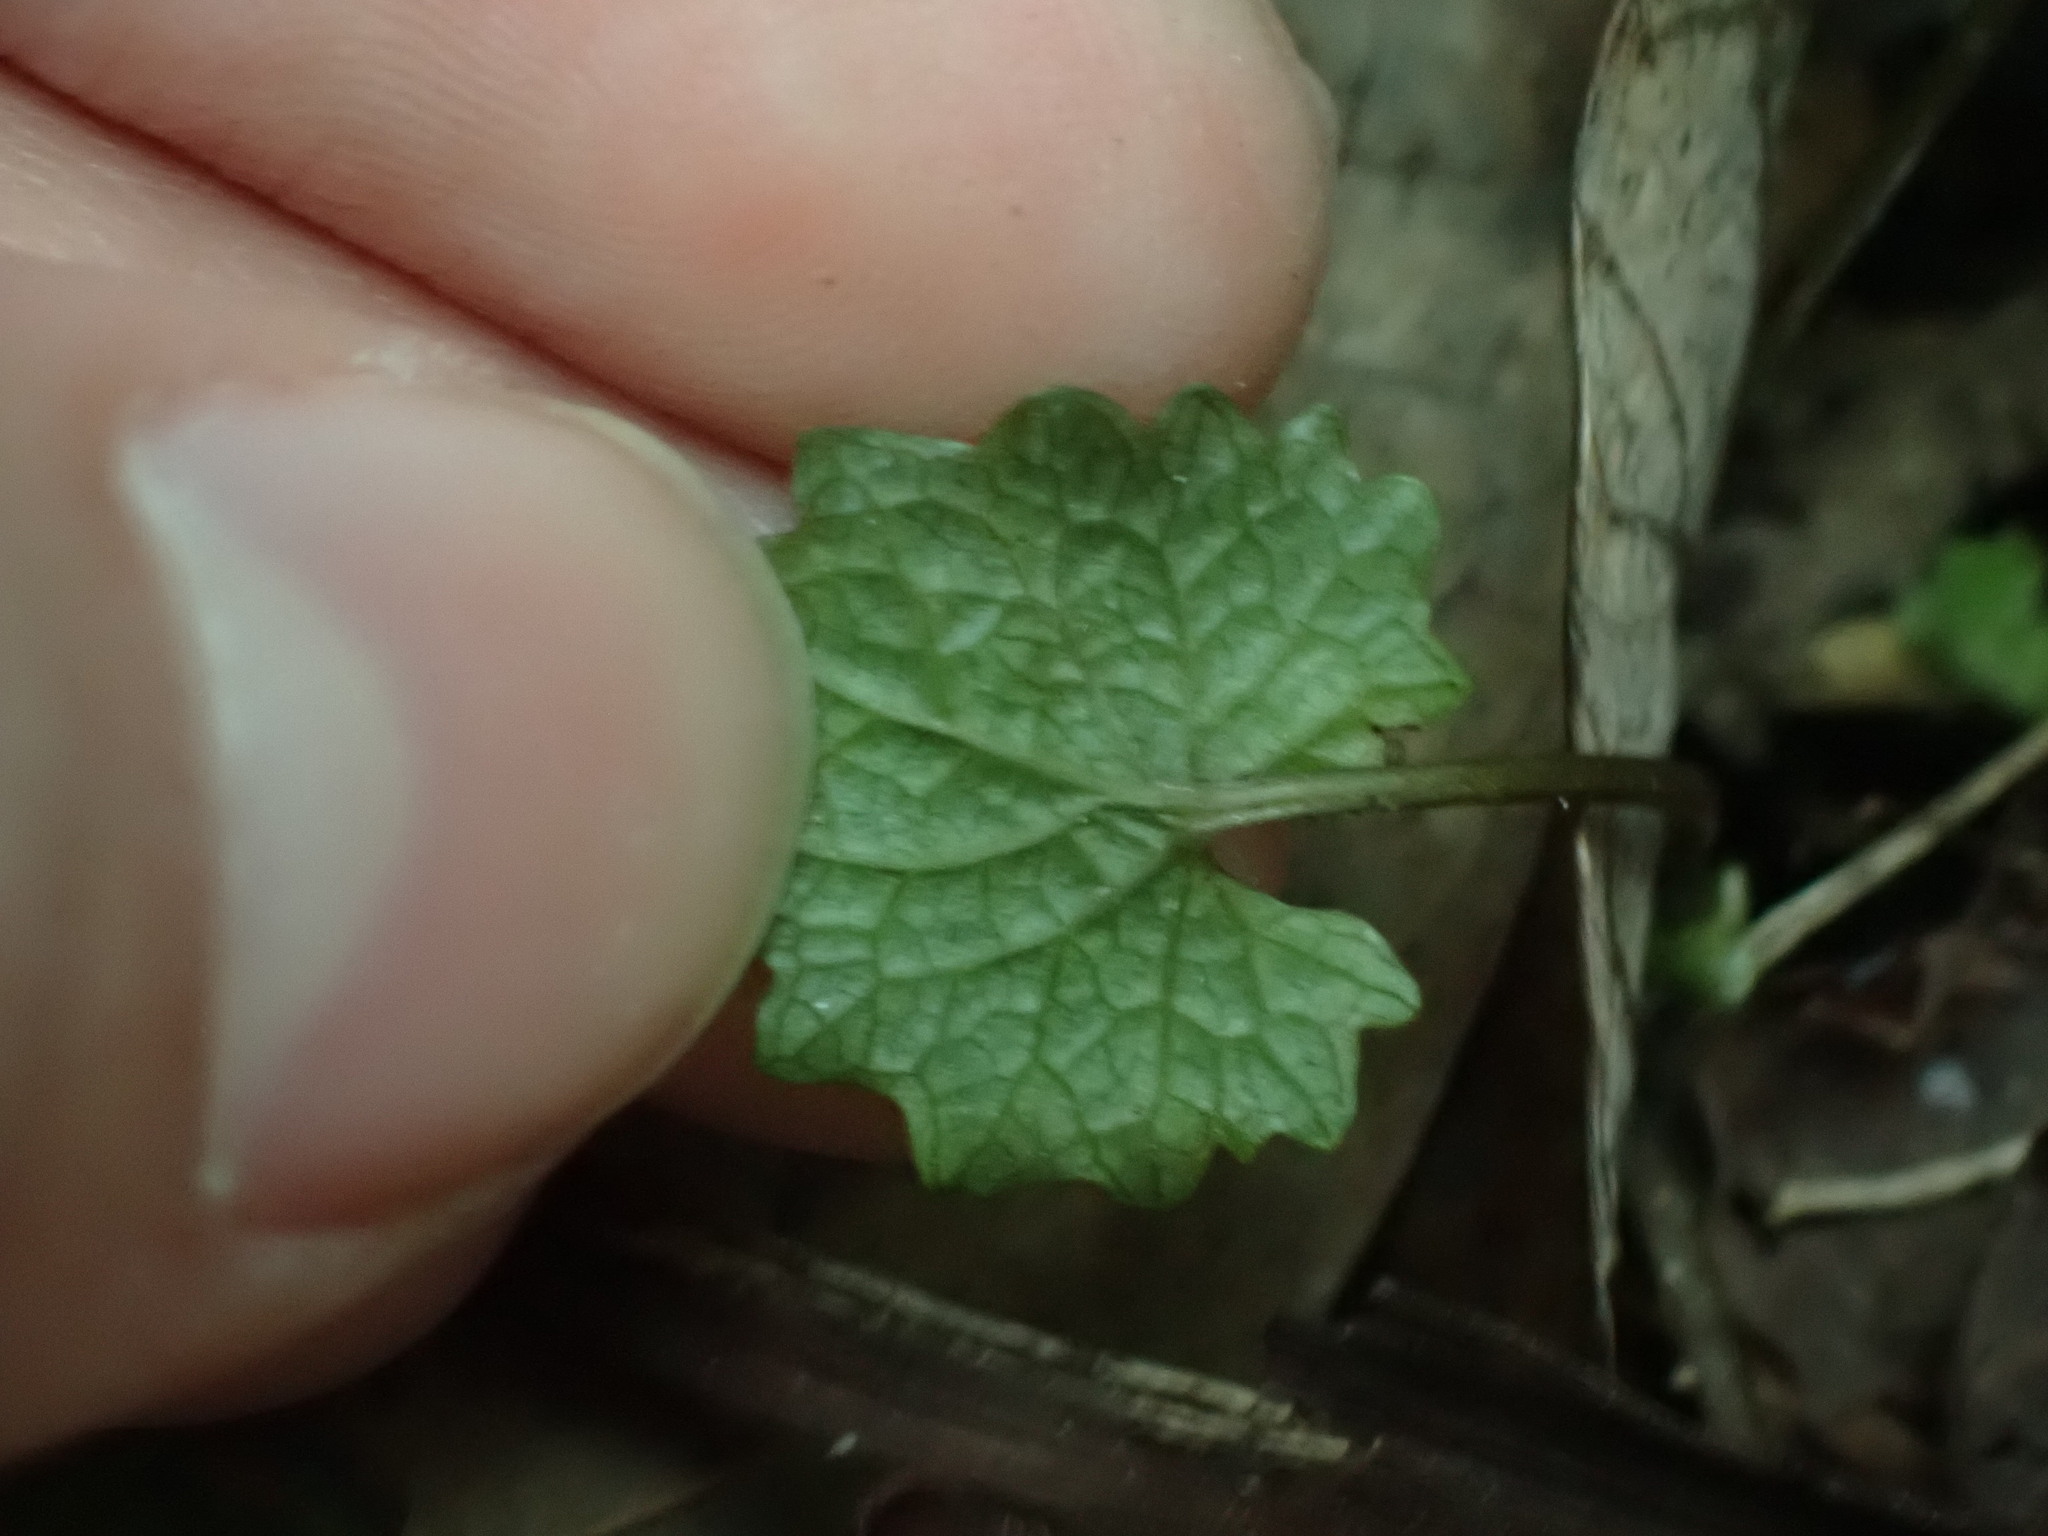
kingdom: Plantae
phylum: Tracheophyta
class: Magnoliopsida
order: Brassicales
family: Brassicaceae
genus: Alliaria
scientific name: Alliaria petiolata
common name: Garlic mustard
